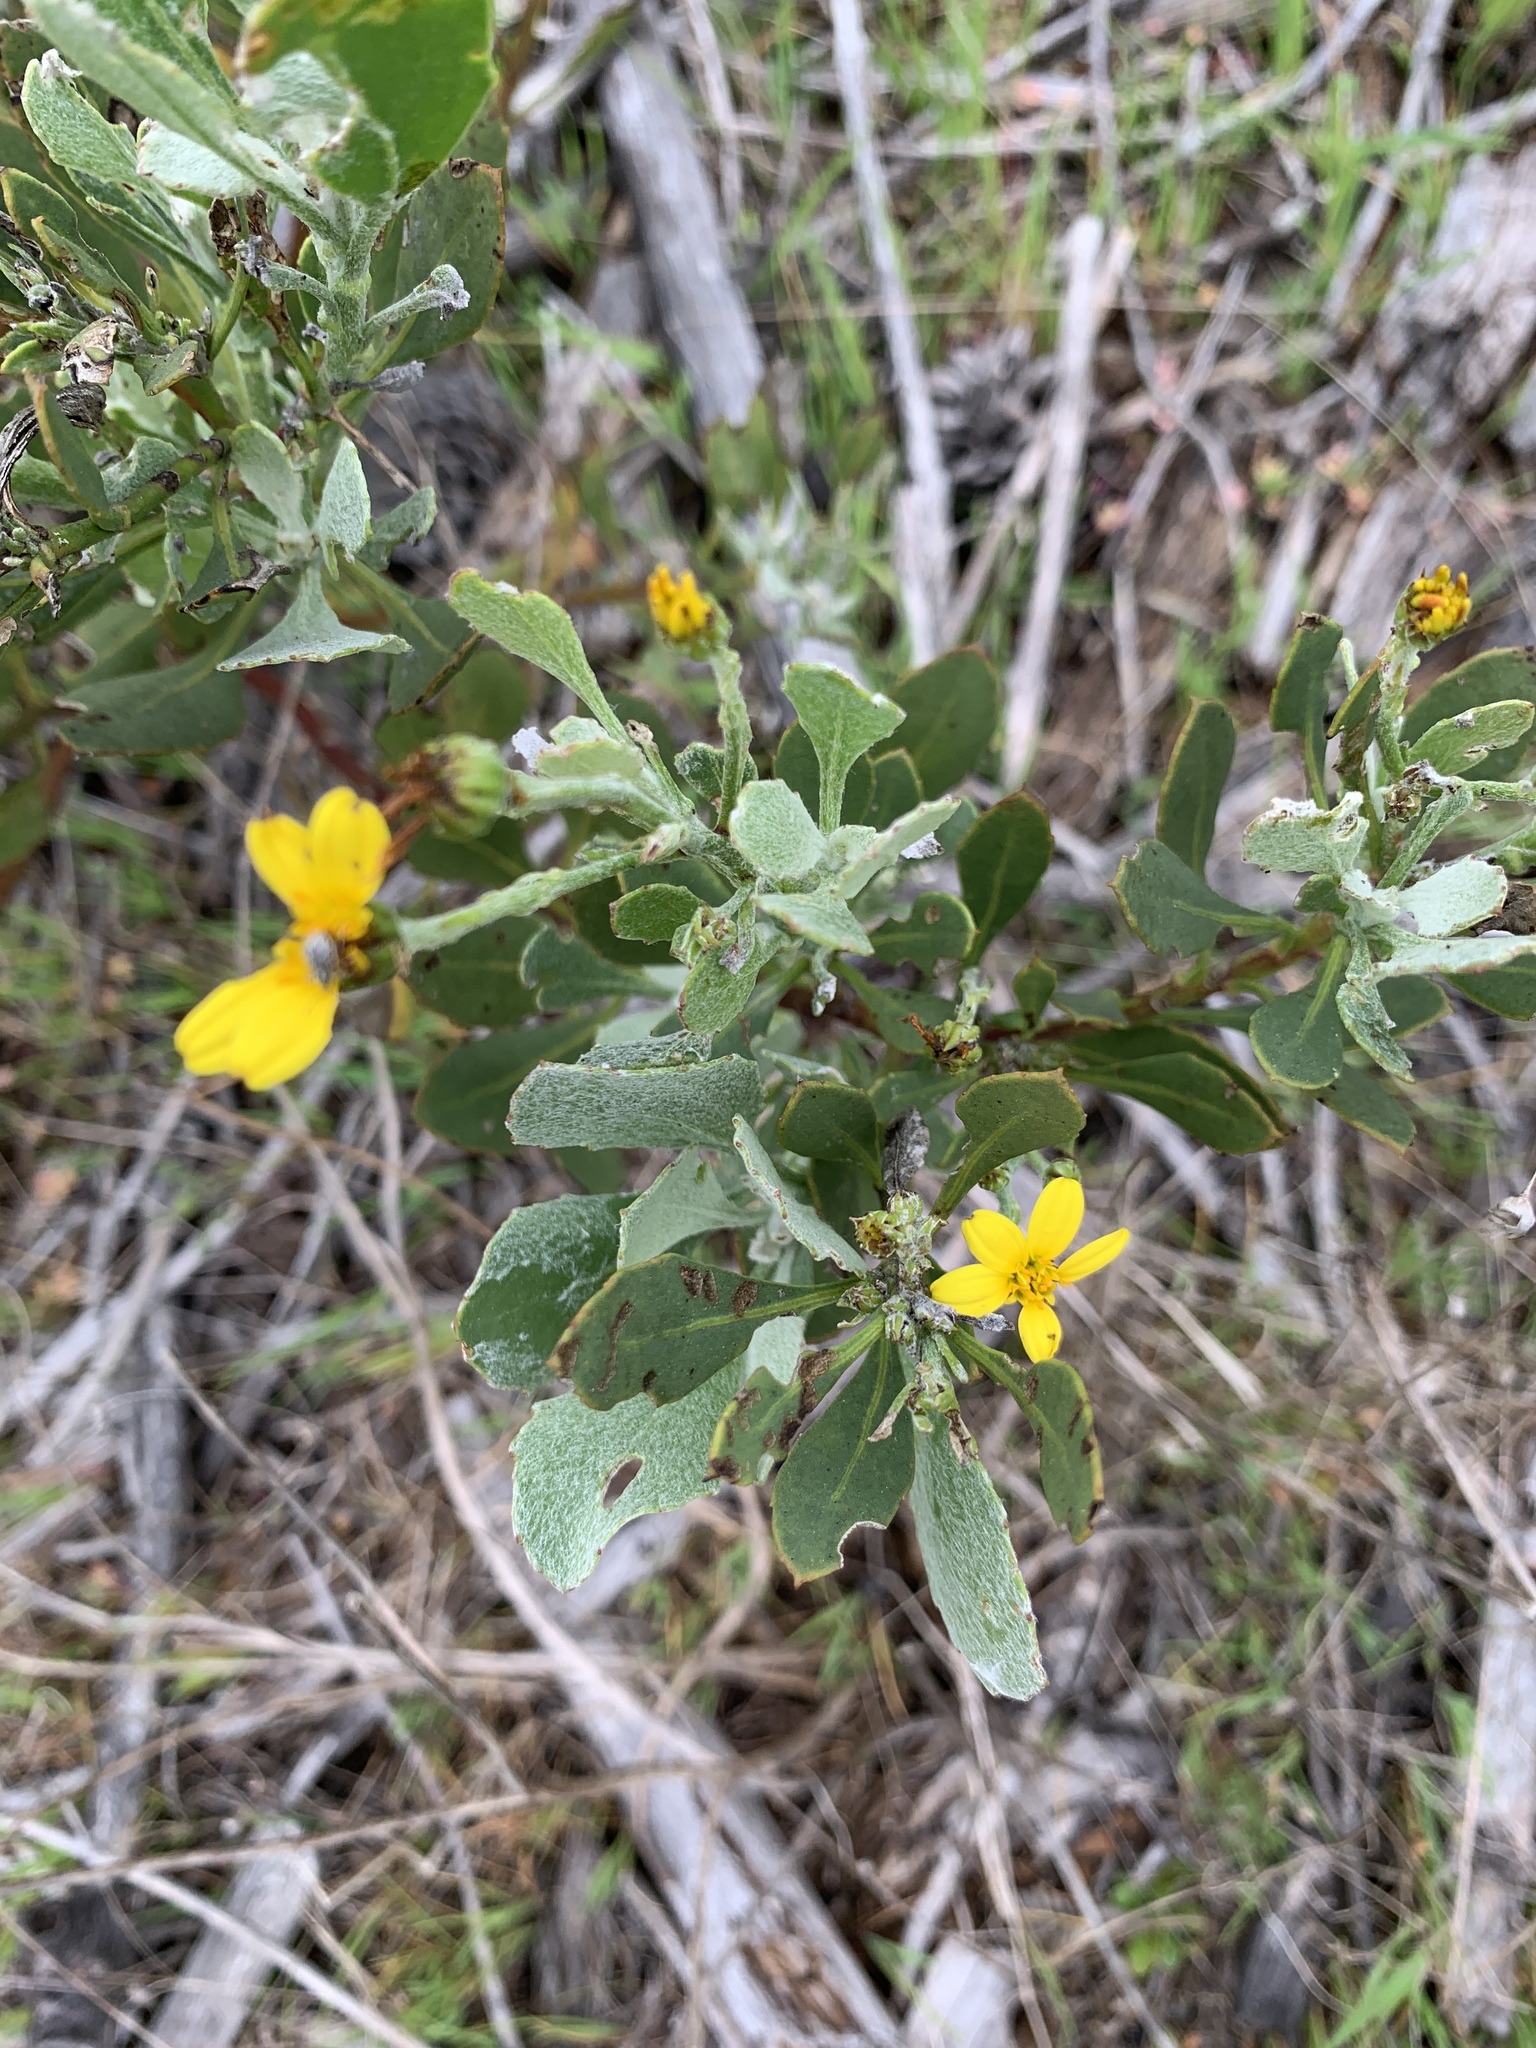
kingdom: Plantae
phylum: Tracheophyta
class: Magnoliopsida
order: Asterales
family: Asteraceae
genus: Osteospermum
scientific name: Osteospermum moniliferum
